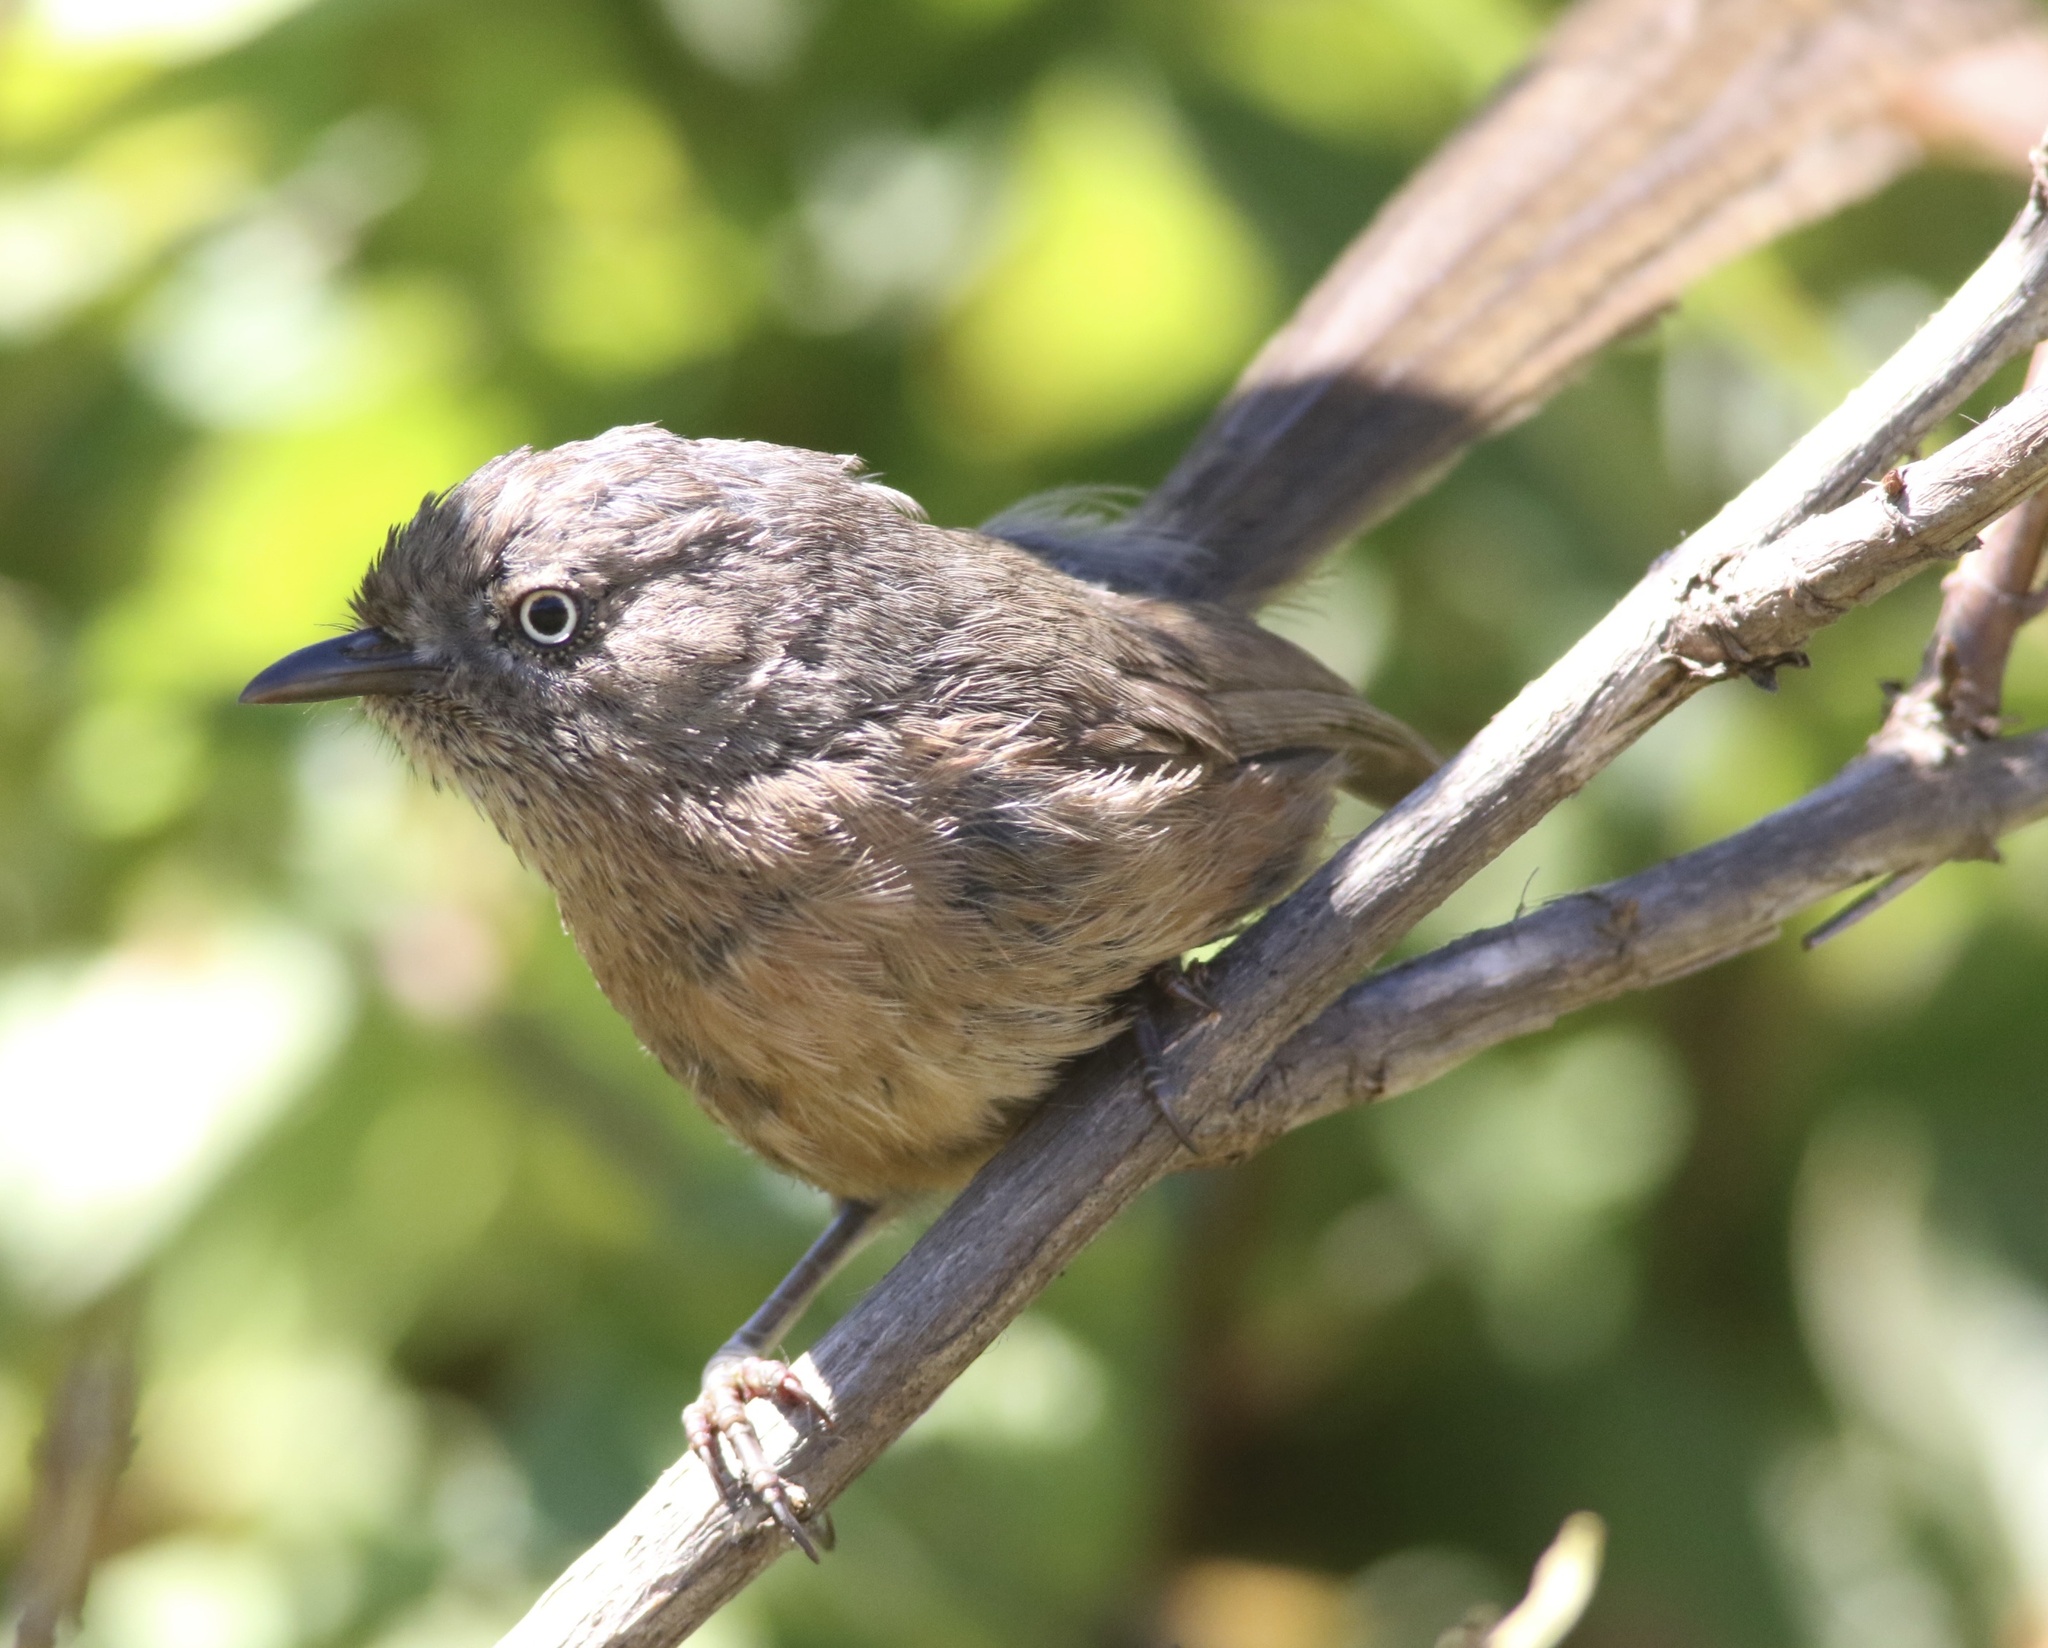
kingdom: Animalia
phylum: Chordata
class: Aves
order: Passeriformes
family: Sylviidae
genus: Chamaea
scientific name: Chamaea fasciata
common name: Wrentit
